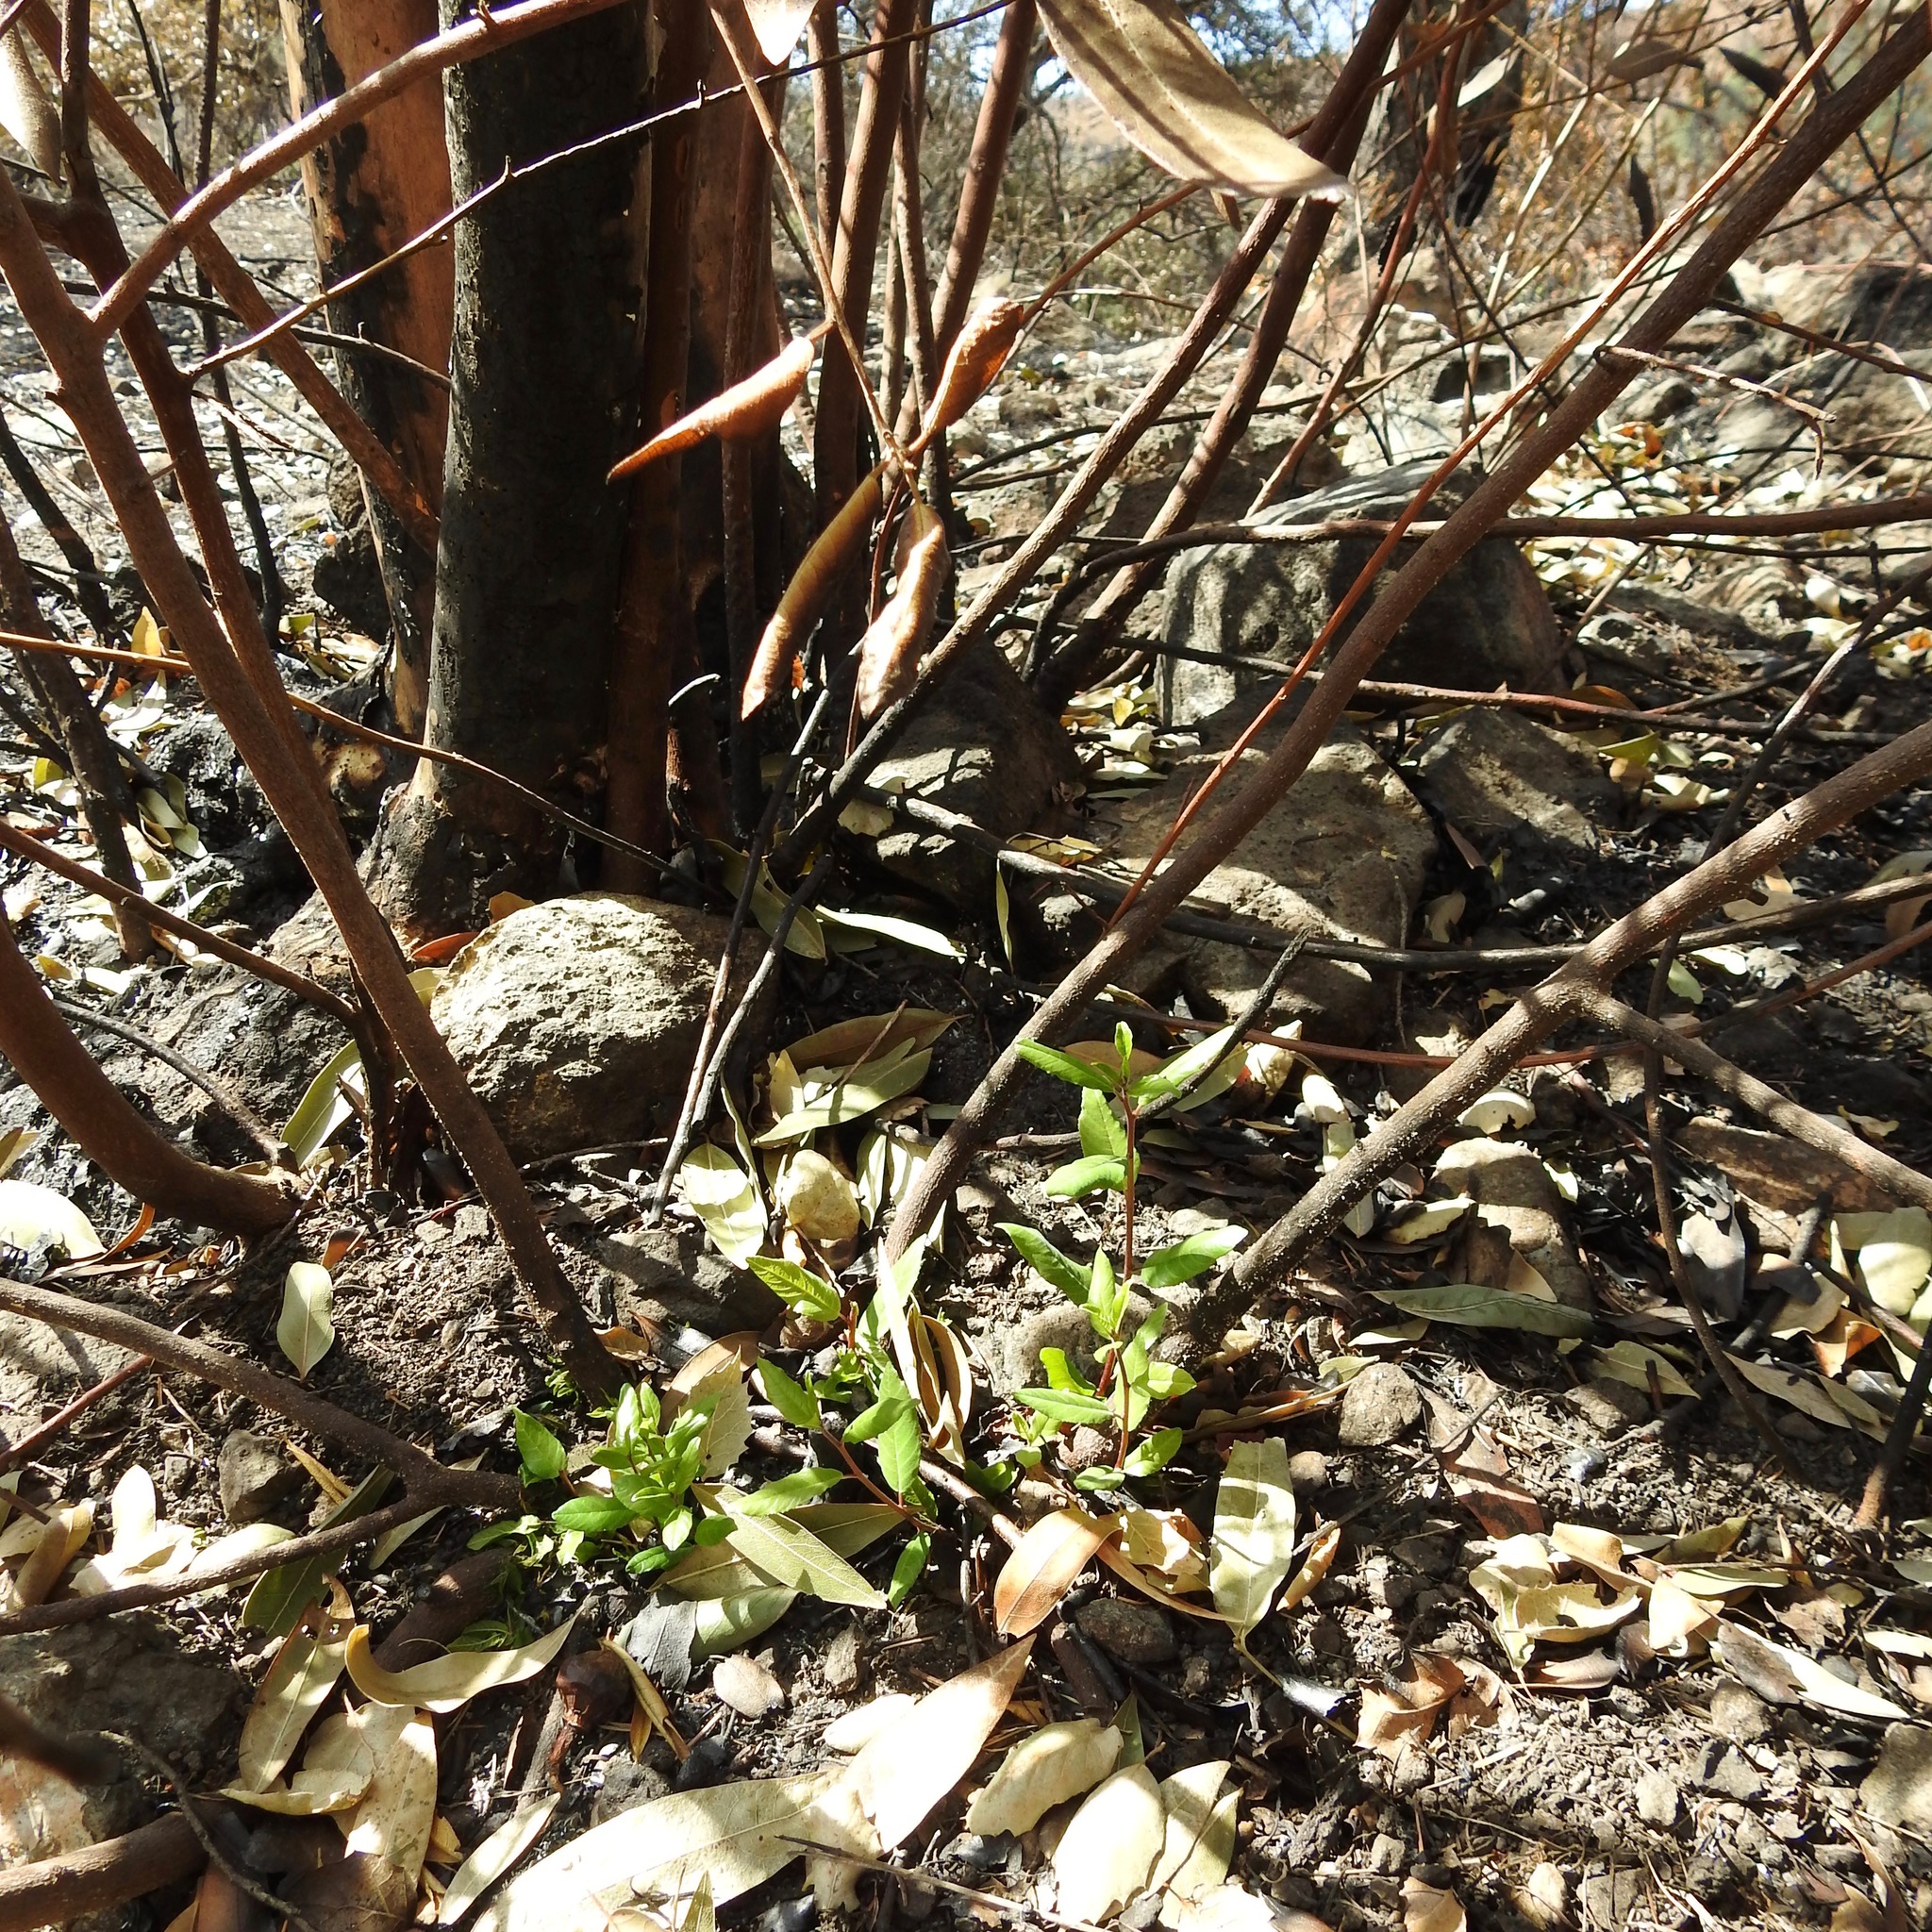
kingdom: Plantae
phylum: Tracheophyta
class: Magnoliopsida
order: Rosales
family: Rhamnaceae
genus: Frangula
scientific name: Frangula californica
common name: California buckthorn
